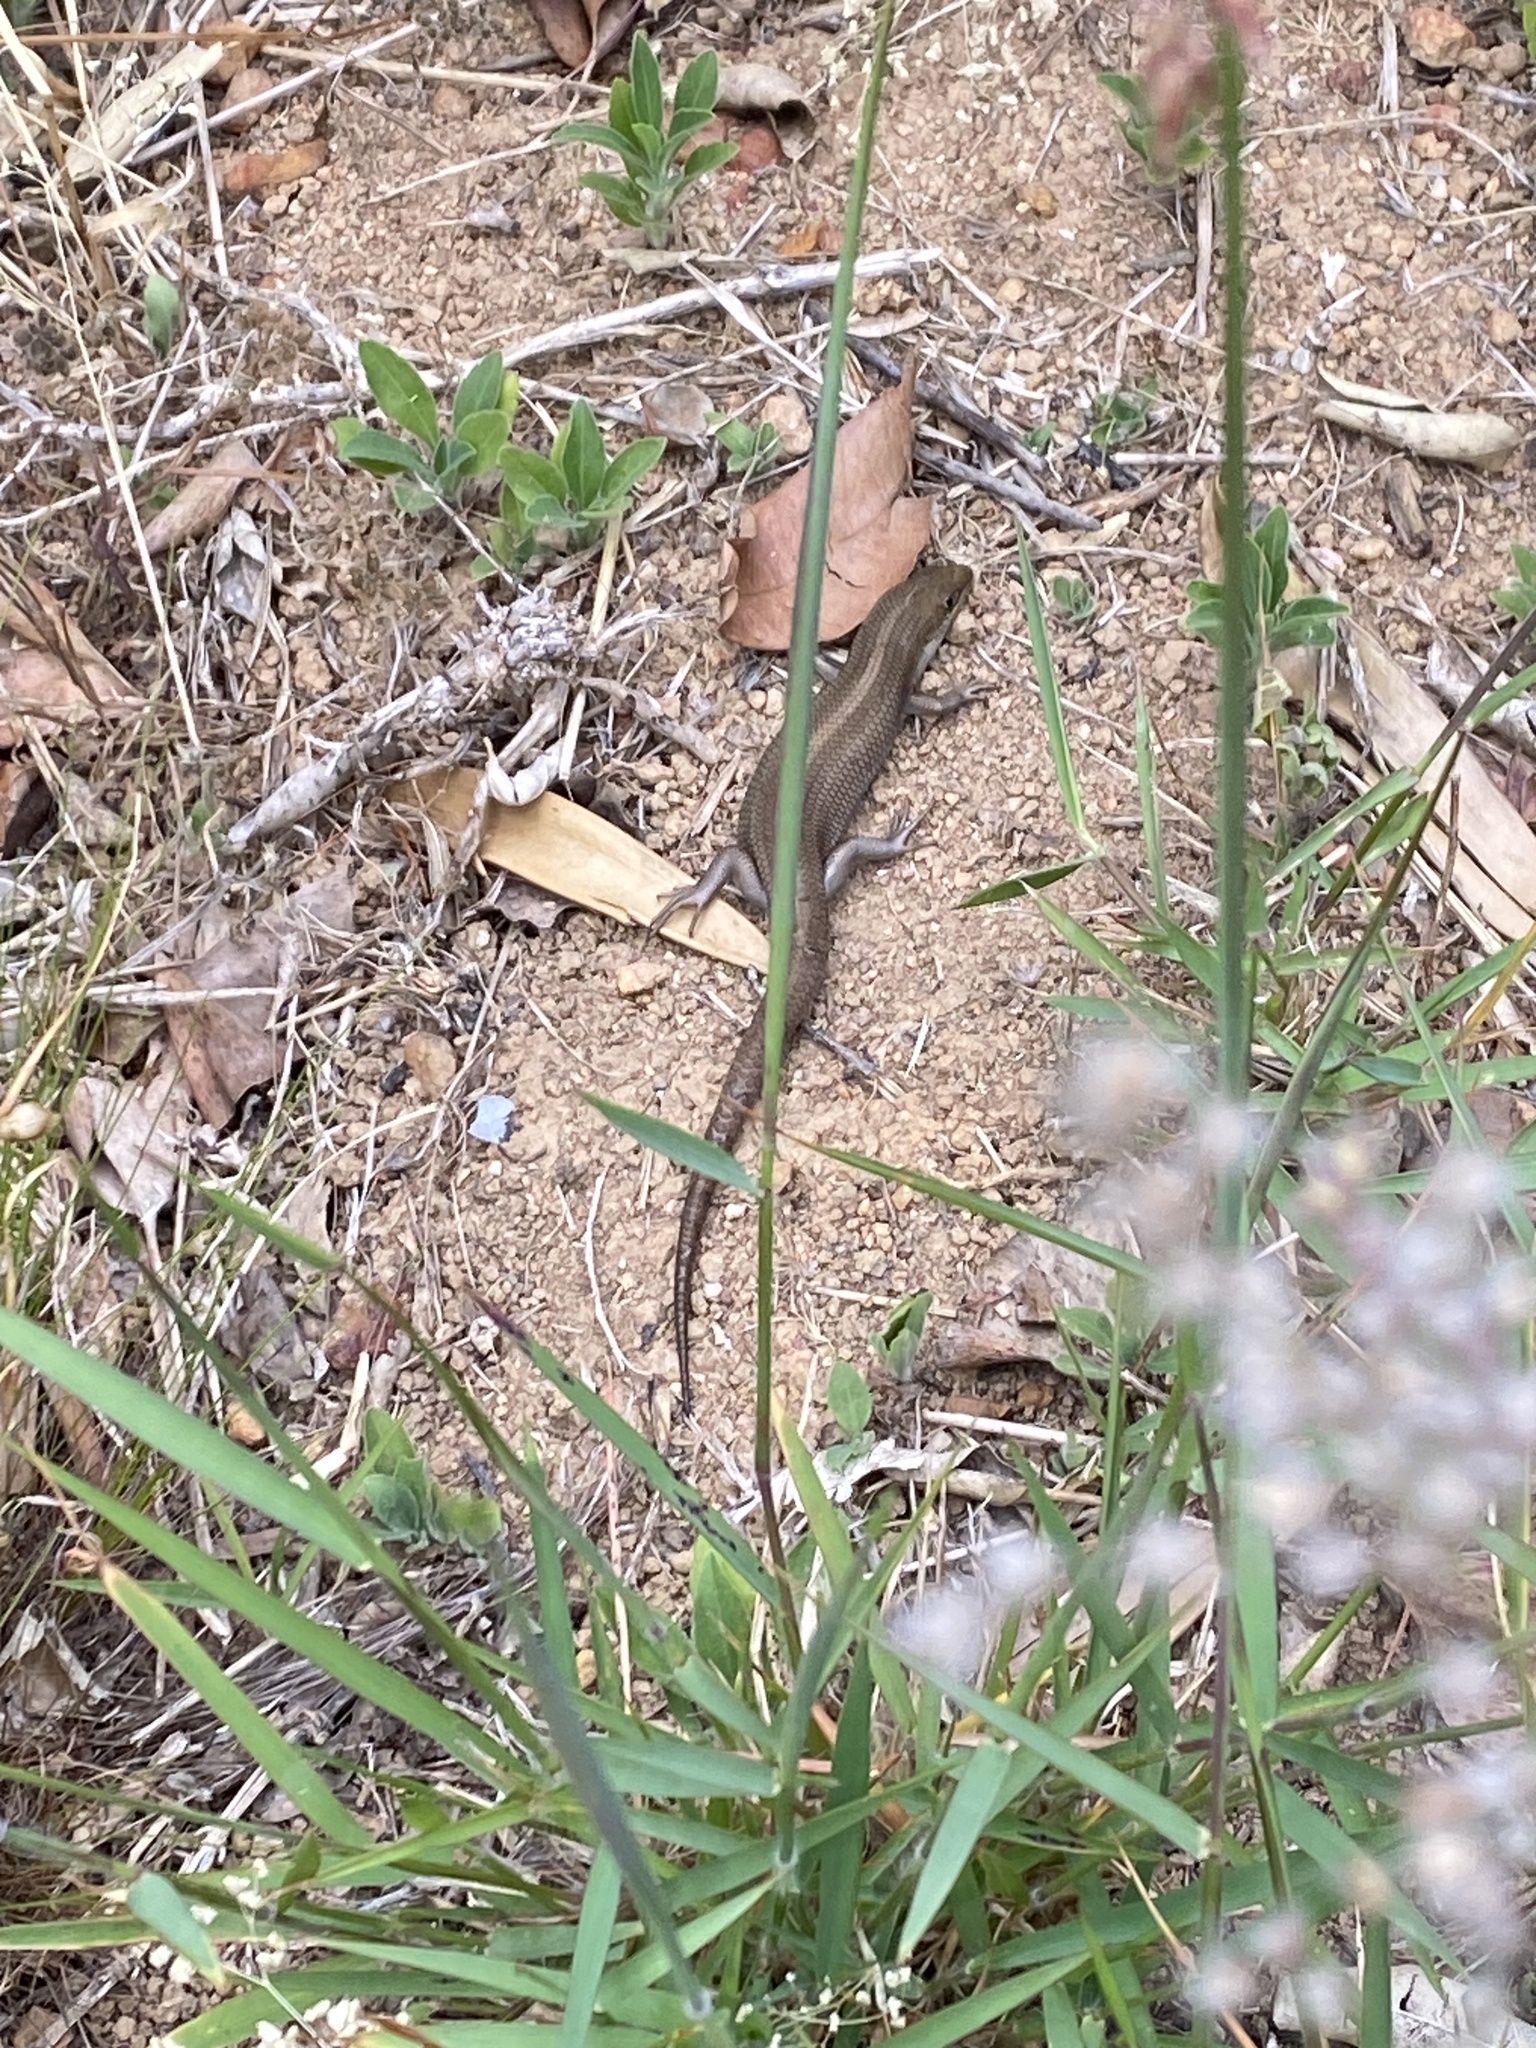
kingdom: Animalia
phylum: Chordata
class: Squamata
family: Scincidae
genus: Trachylepis
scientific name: Trachylepis capensis
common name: Cape skink
